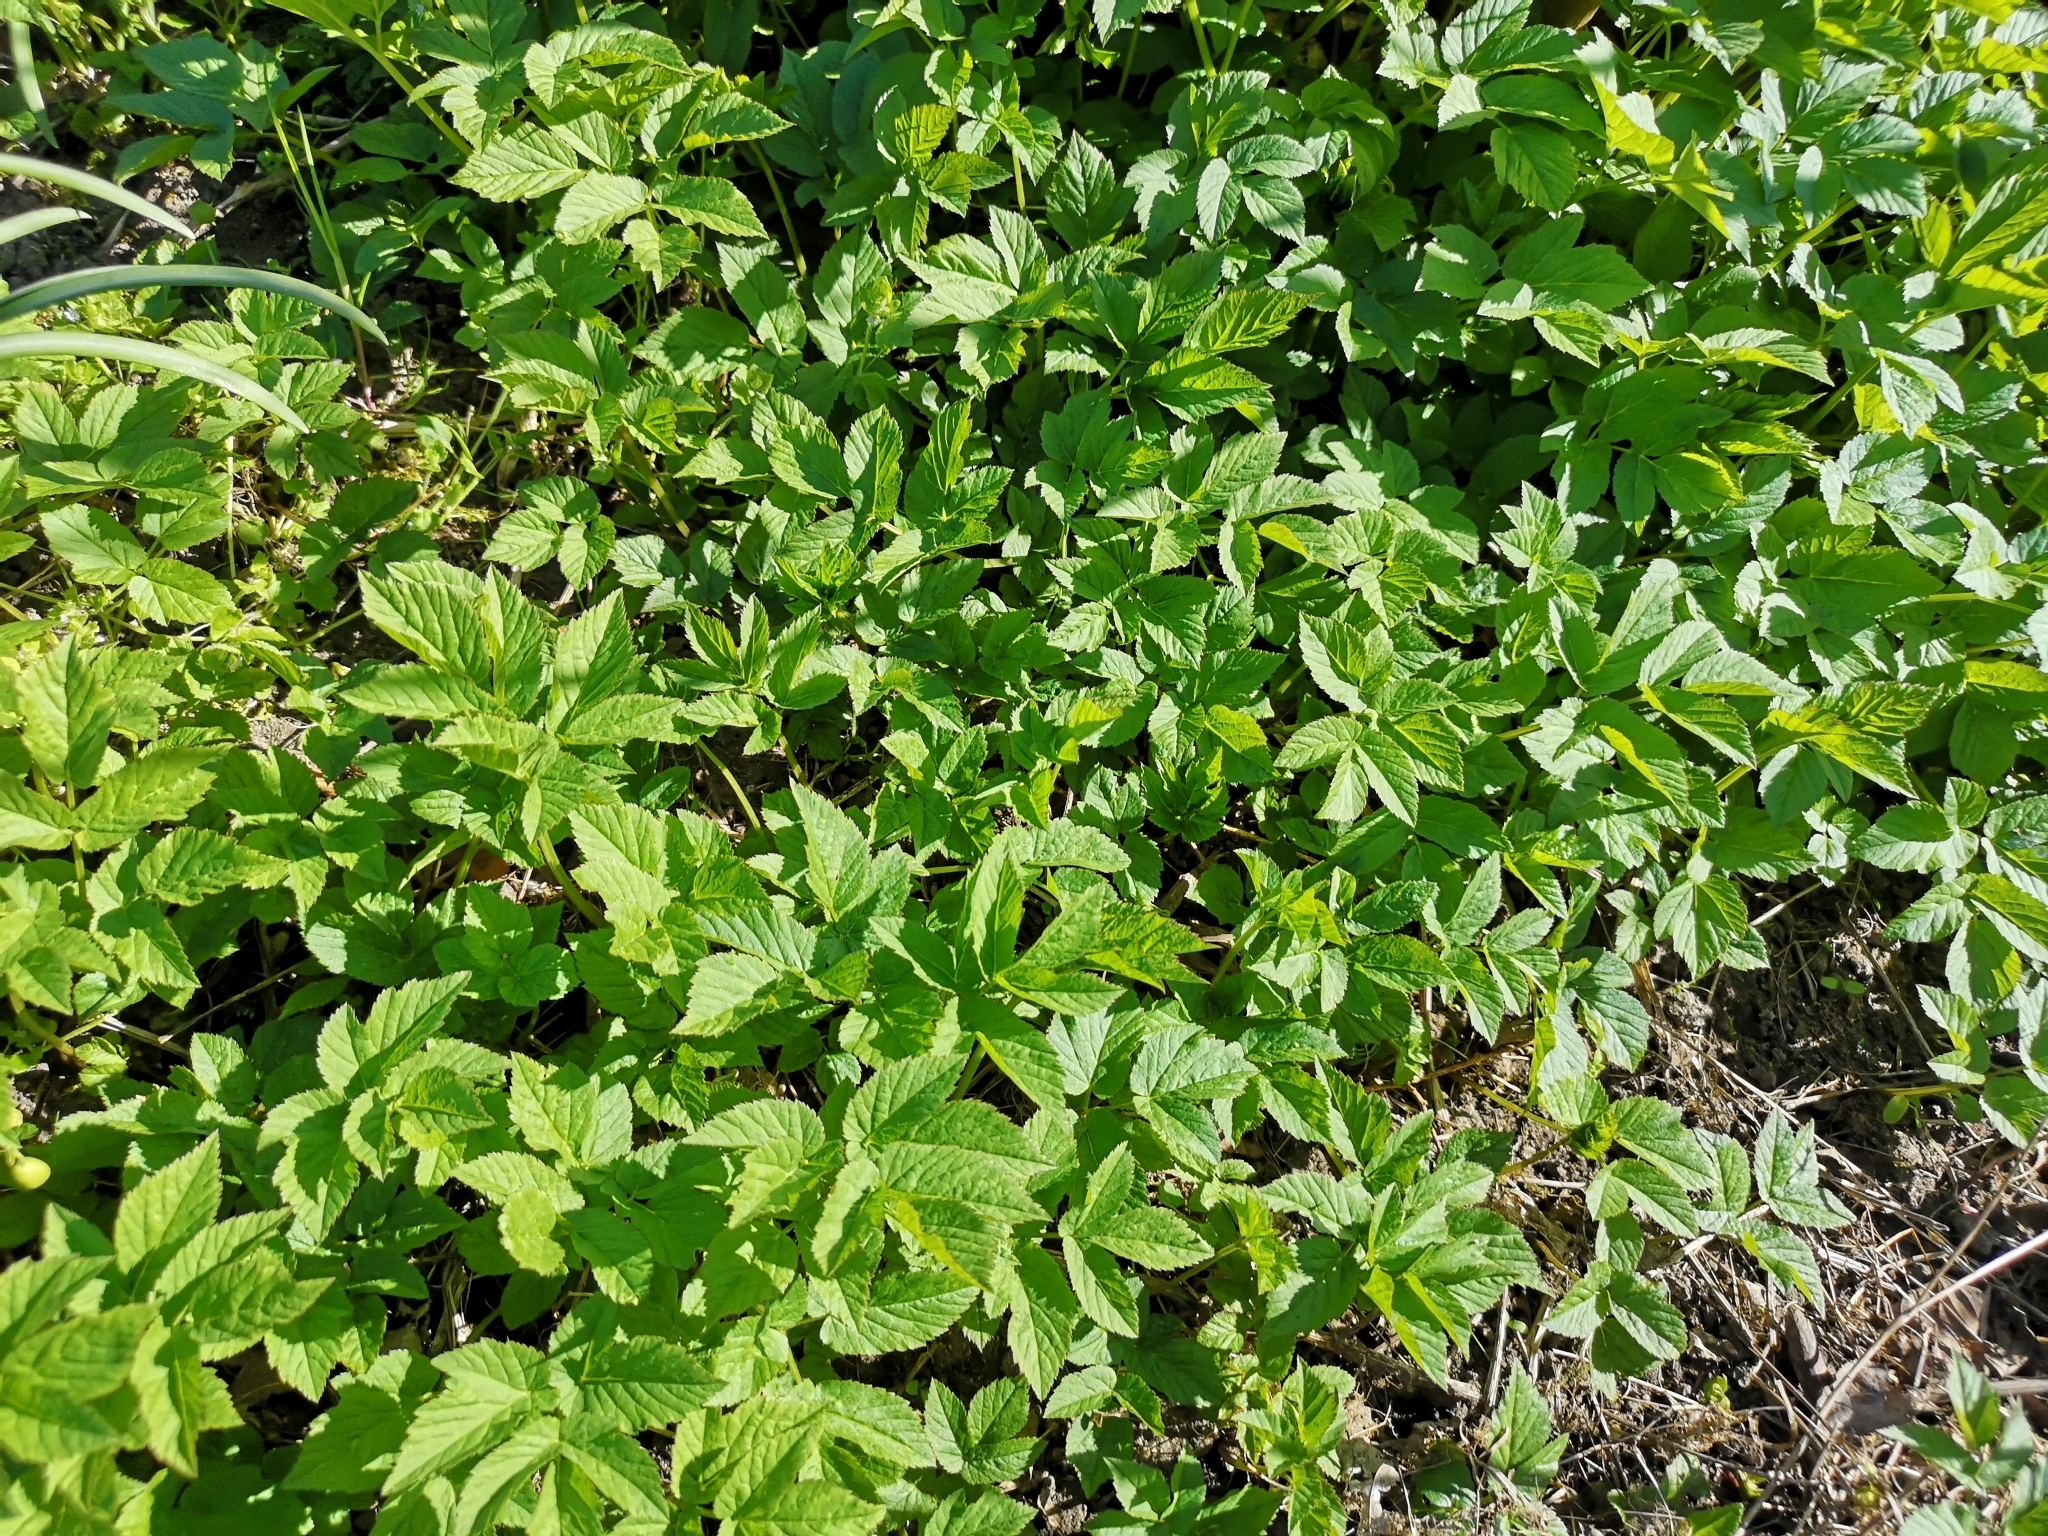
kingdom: Plantae
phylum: Tracheophyta
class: Magnoliopsida
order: Apiales
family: Apiaceae
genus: Aegopodium
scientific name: Aegopodium podagraria
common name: Ground-elder
